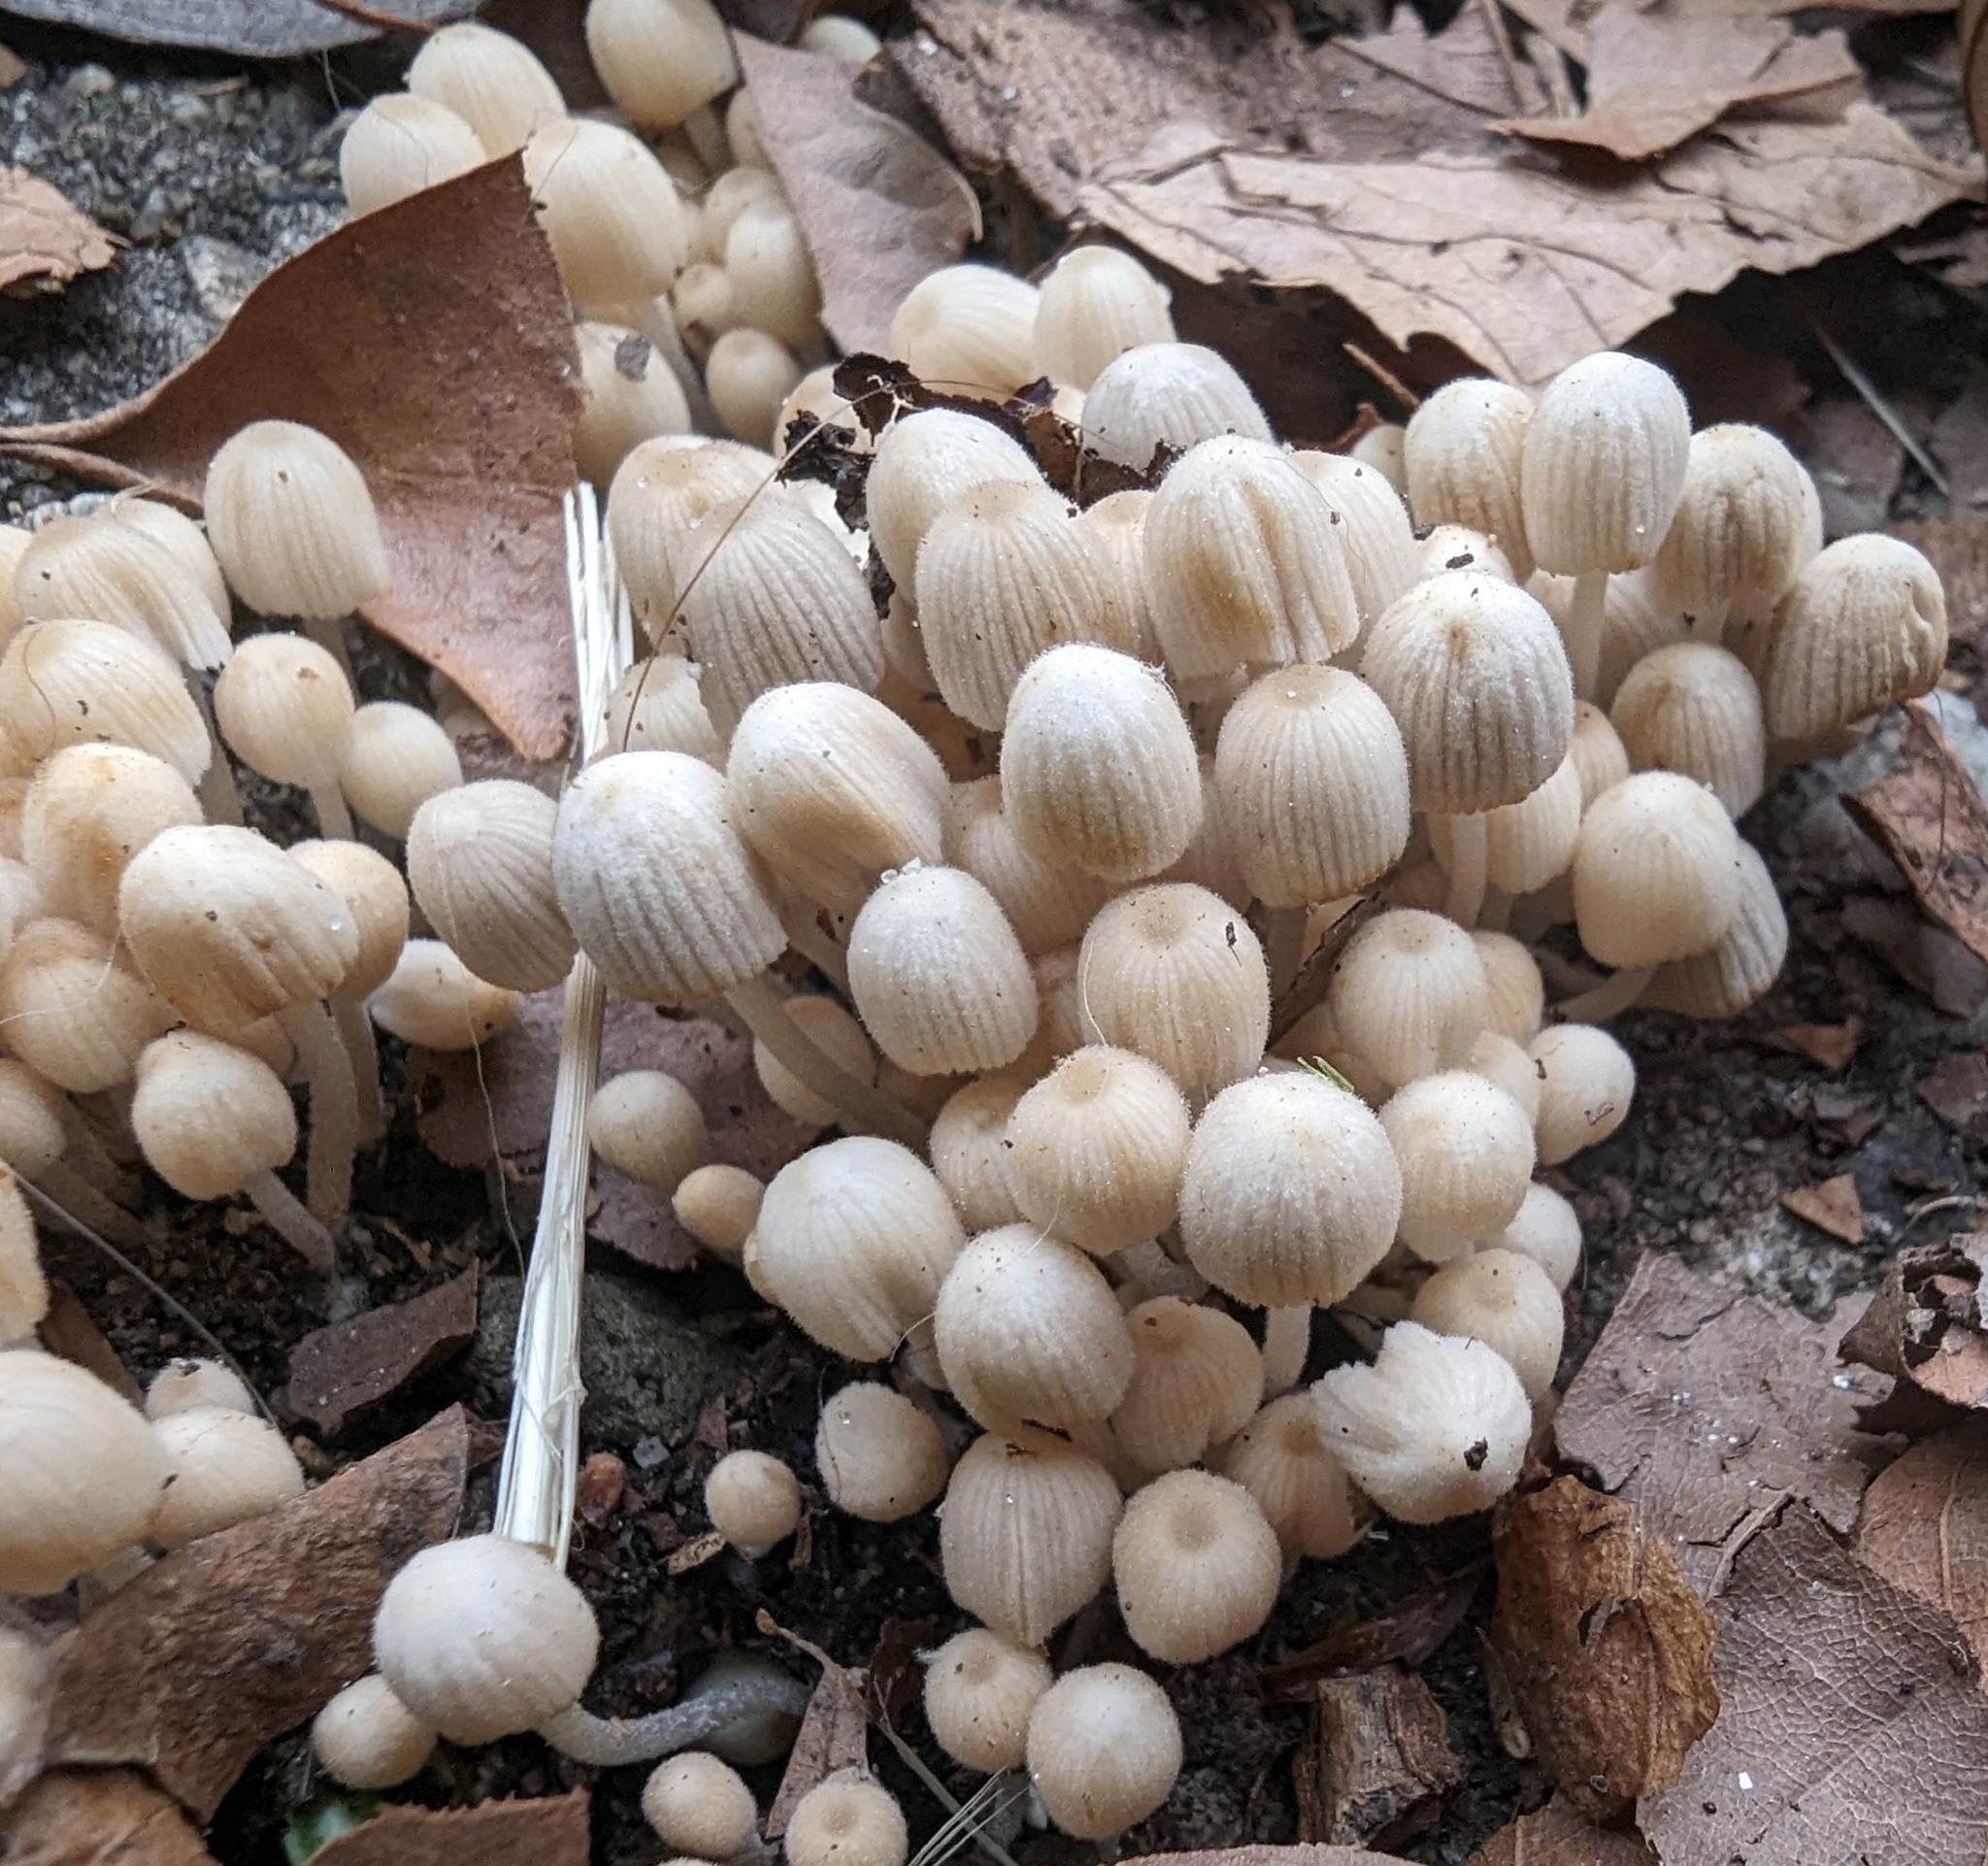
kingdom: Fungi
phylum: Basidiomycota
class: Agaricomycetes
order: Agaricales
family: Psathyrellaceae
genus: Coprinellus
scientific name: Coprinellus disseminatus
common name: Fairies' bonnets
